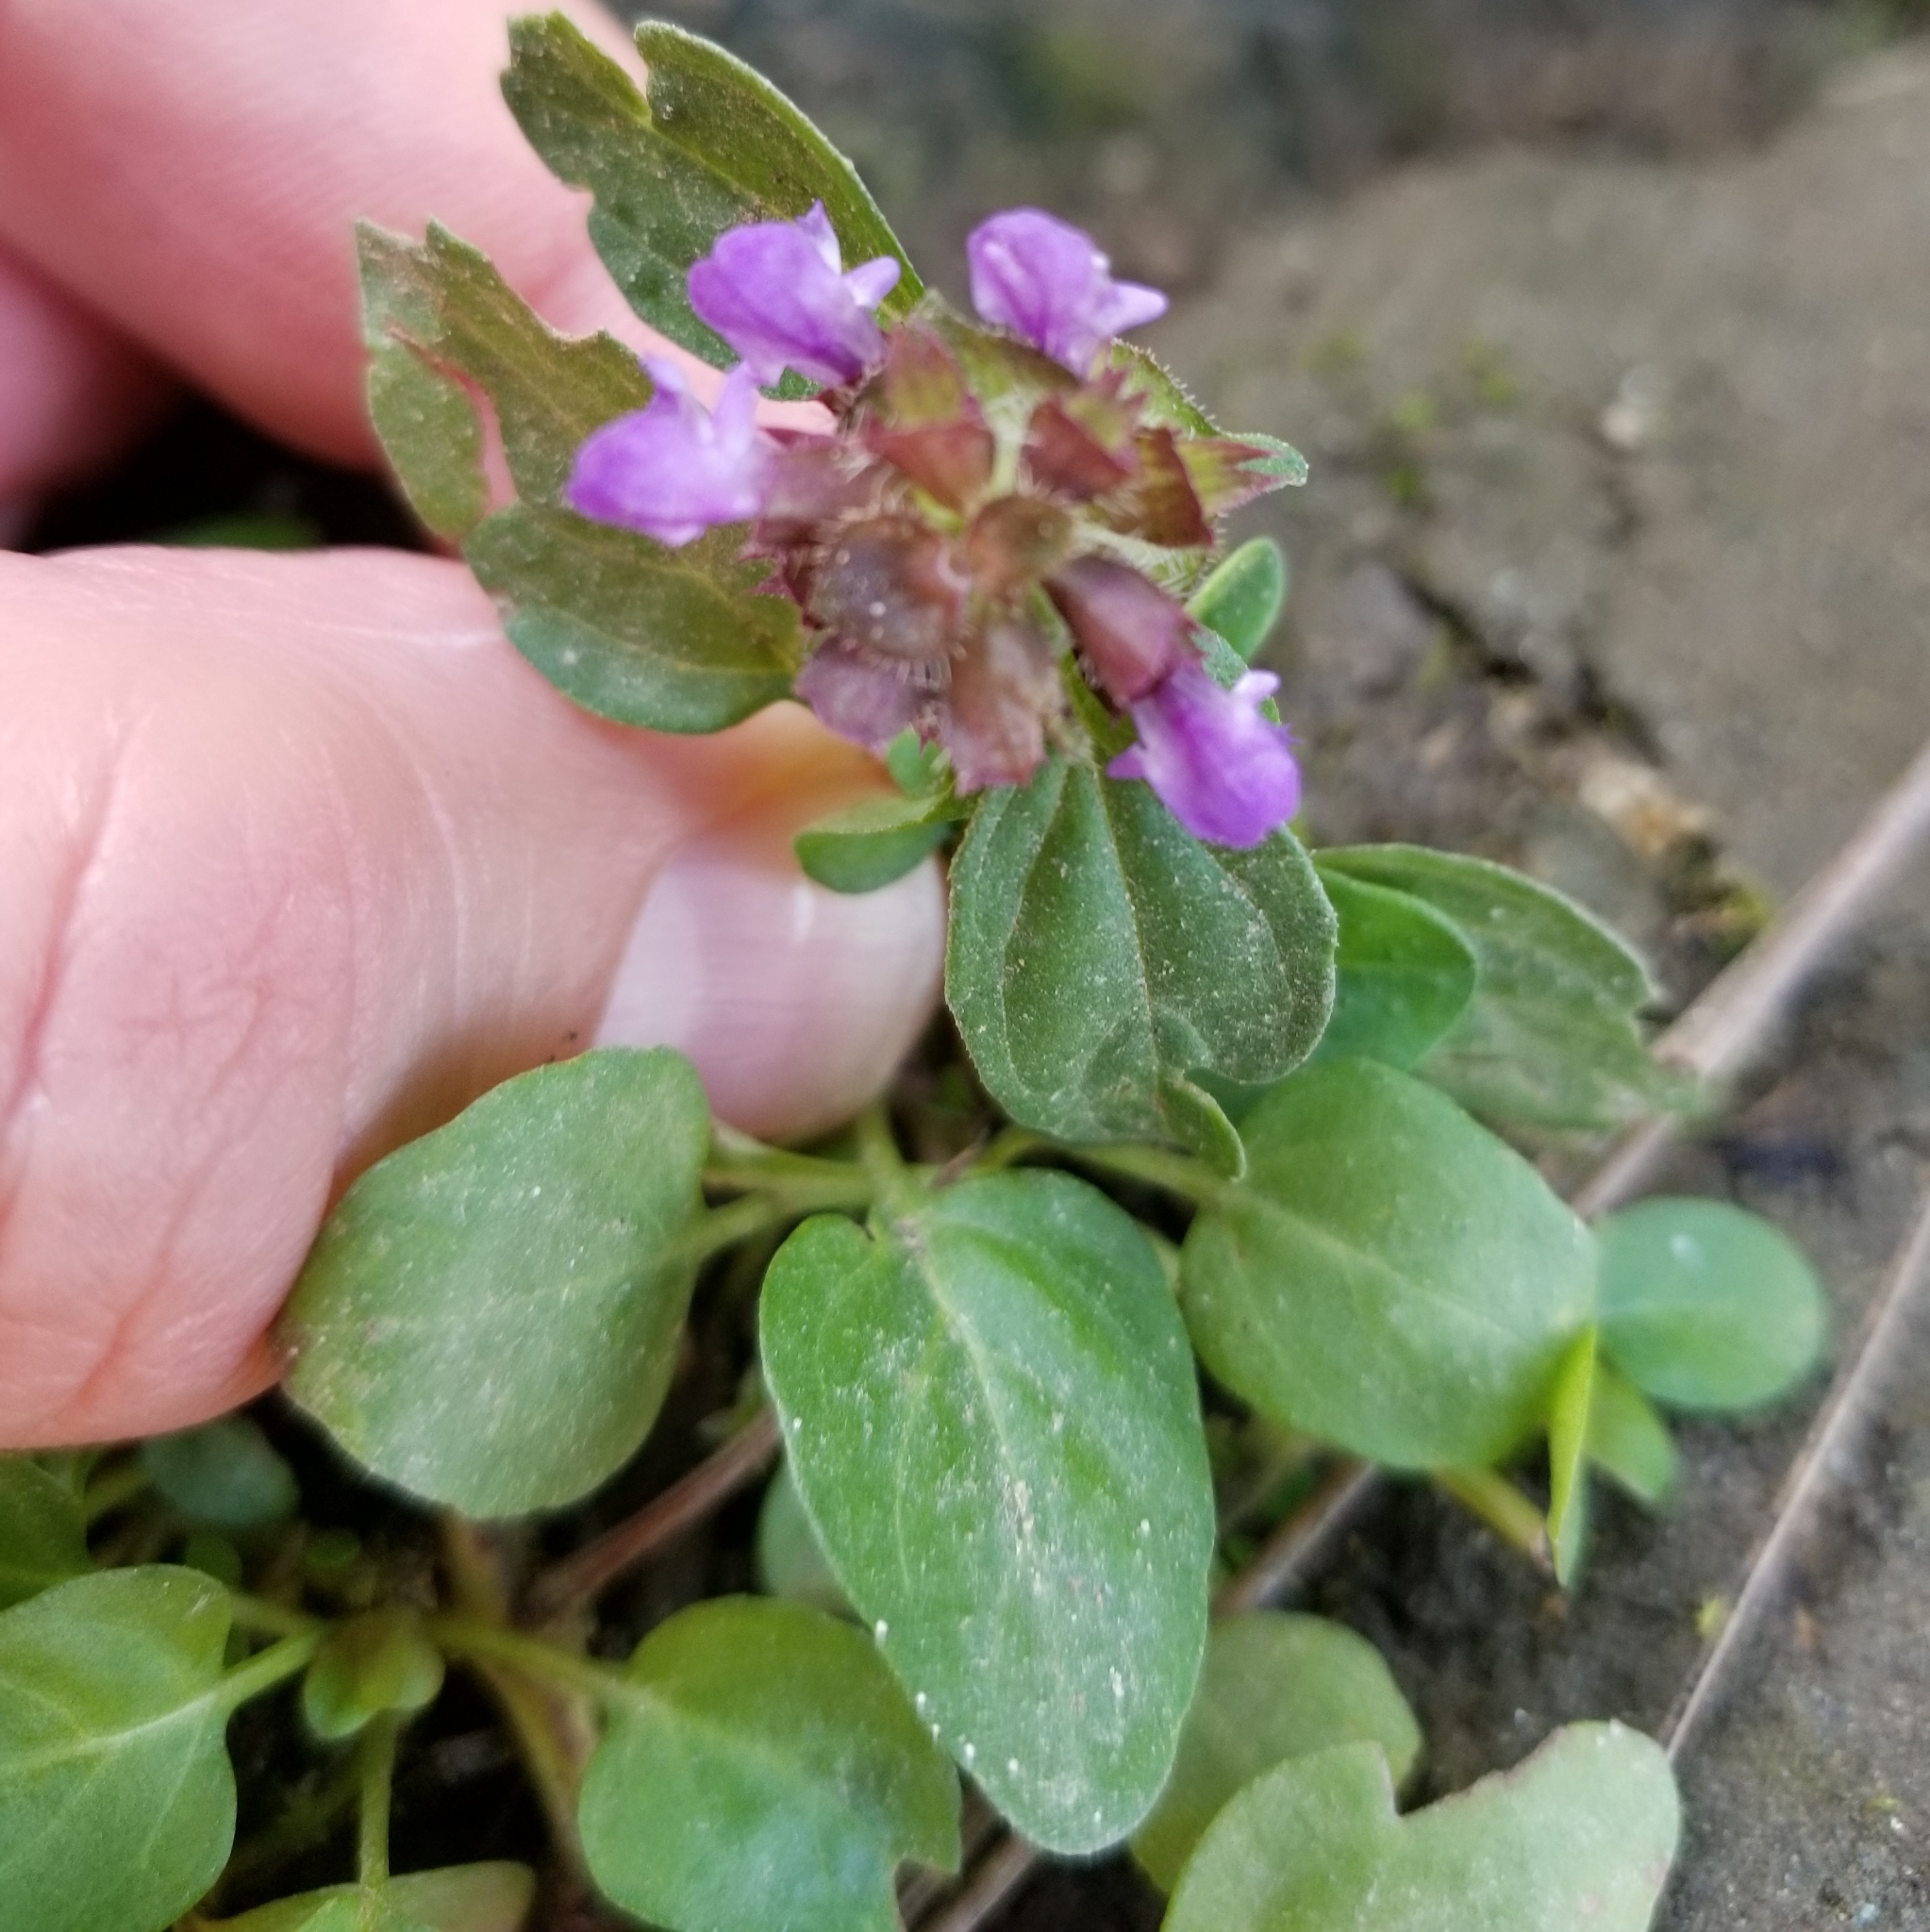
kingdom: Plantae
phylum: Tracheophyta
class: Magnoliopsida
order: Lamiales
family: Lamiaceae
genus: Prunella
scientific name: Prunella vulgaris
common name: Heal-all
